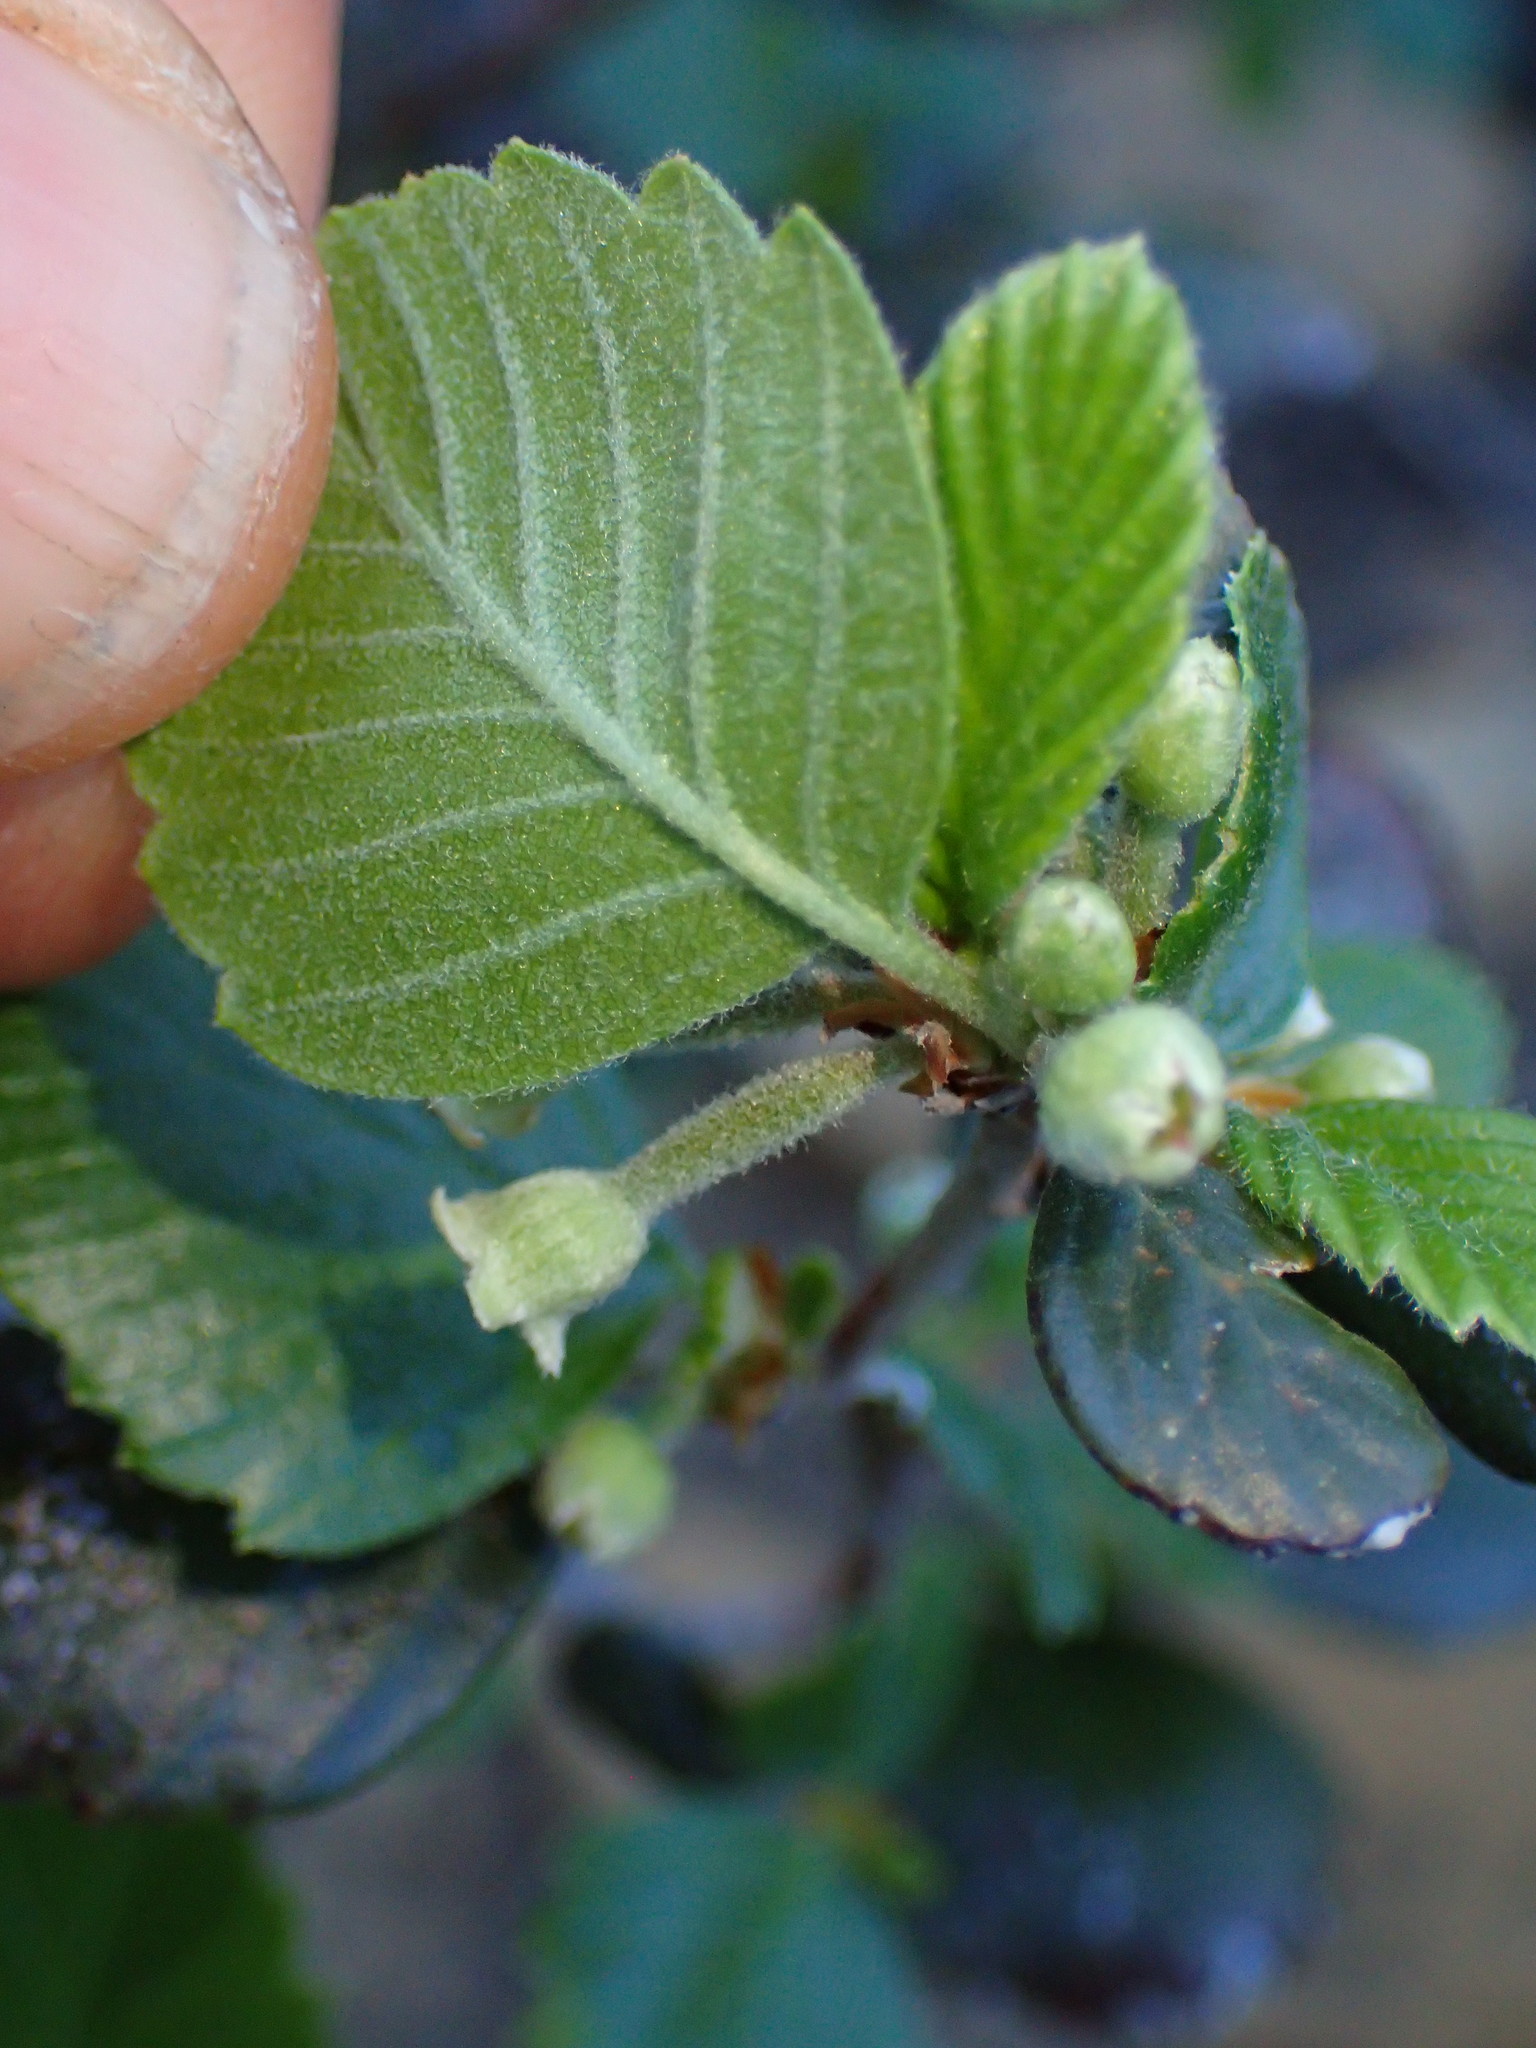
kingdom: Plantae
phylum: Tracheophyta
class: Magnoliopsida
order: Rosales
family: Rosaceae
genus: Cercocarpus
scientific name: Cercocarpus betuloides
